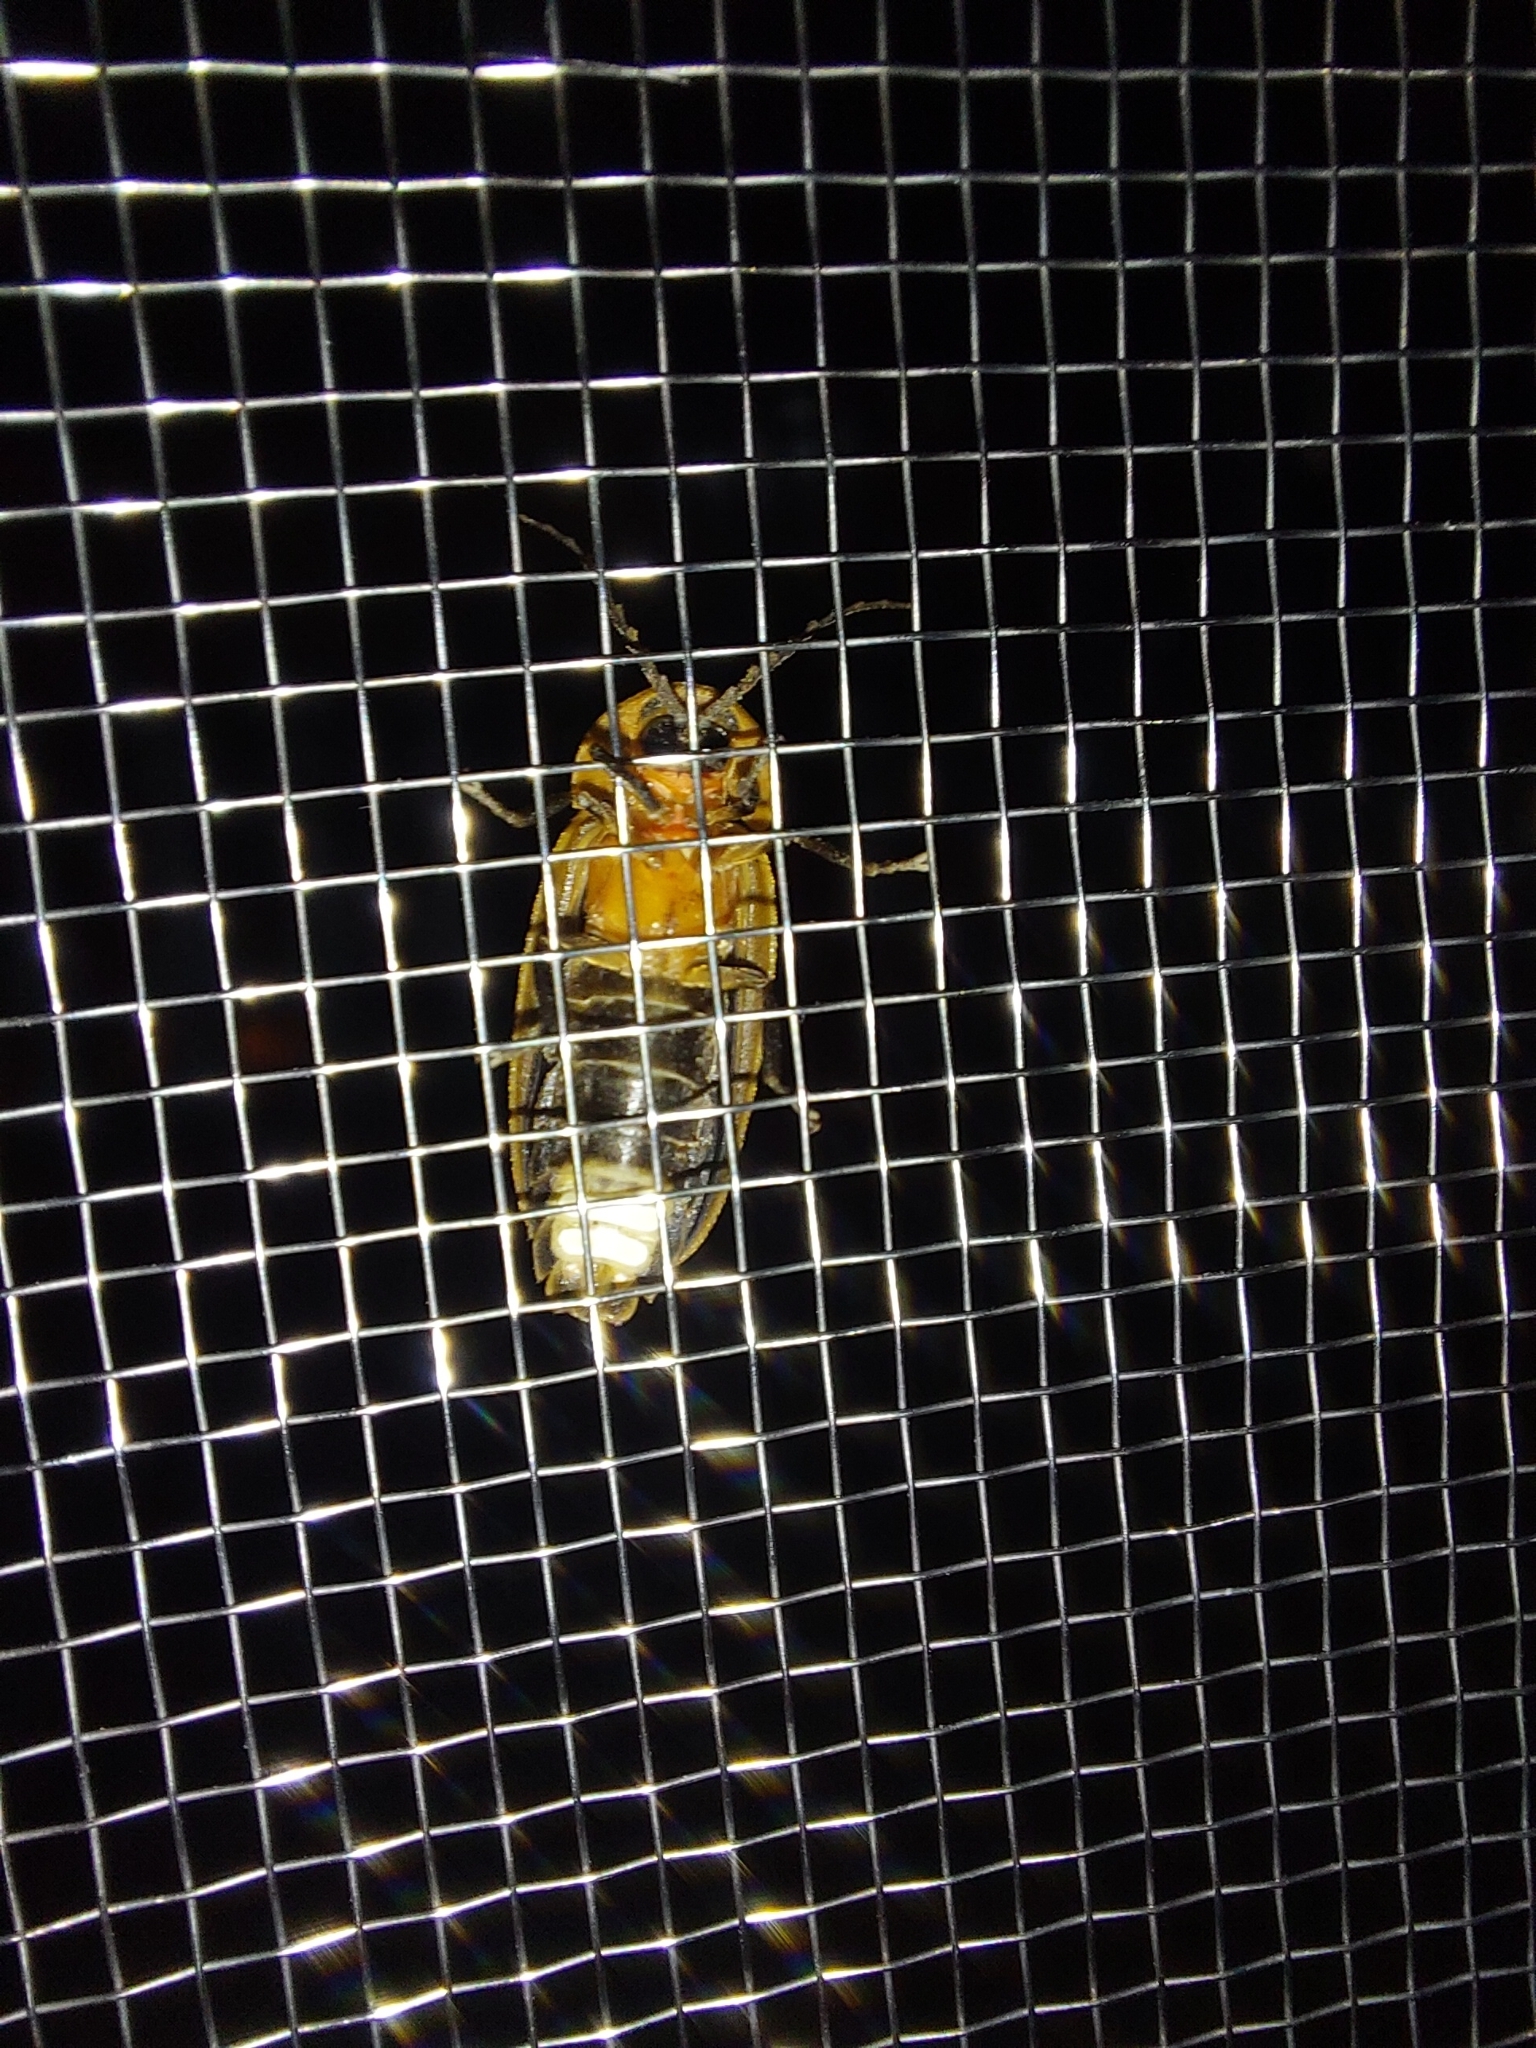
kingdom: Animalia
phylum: Arthropoda
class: Insecta
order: Coleoptera
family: Lampyridae
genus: Pyrocoelia
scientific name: Pyrocoelia analis
